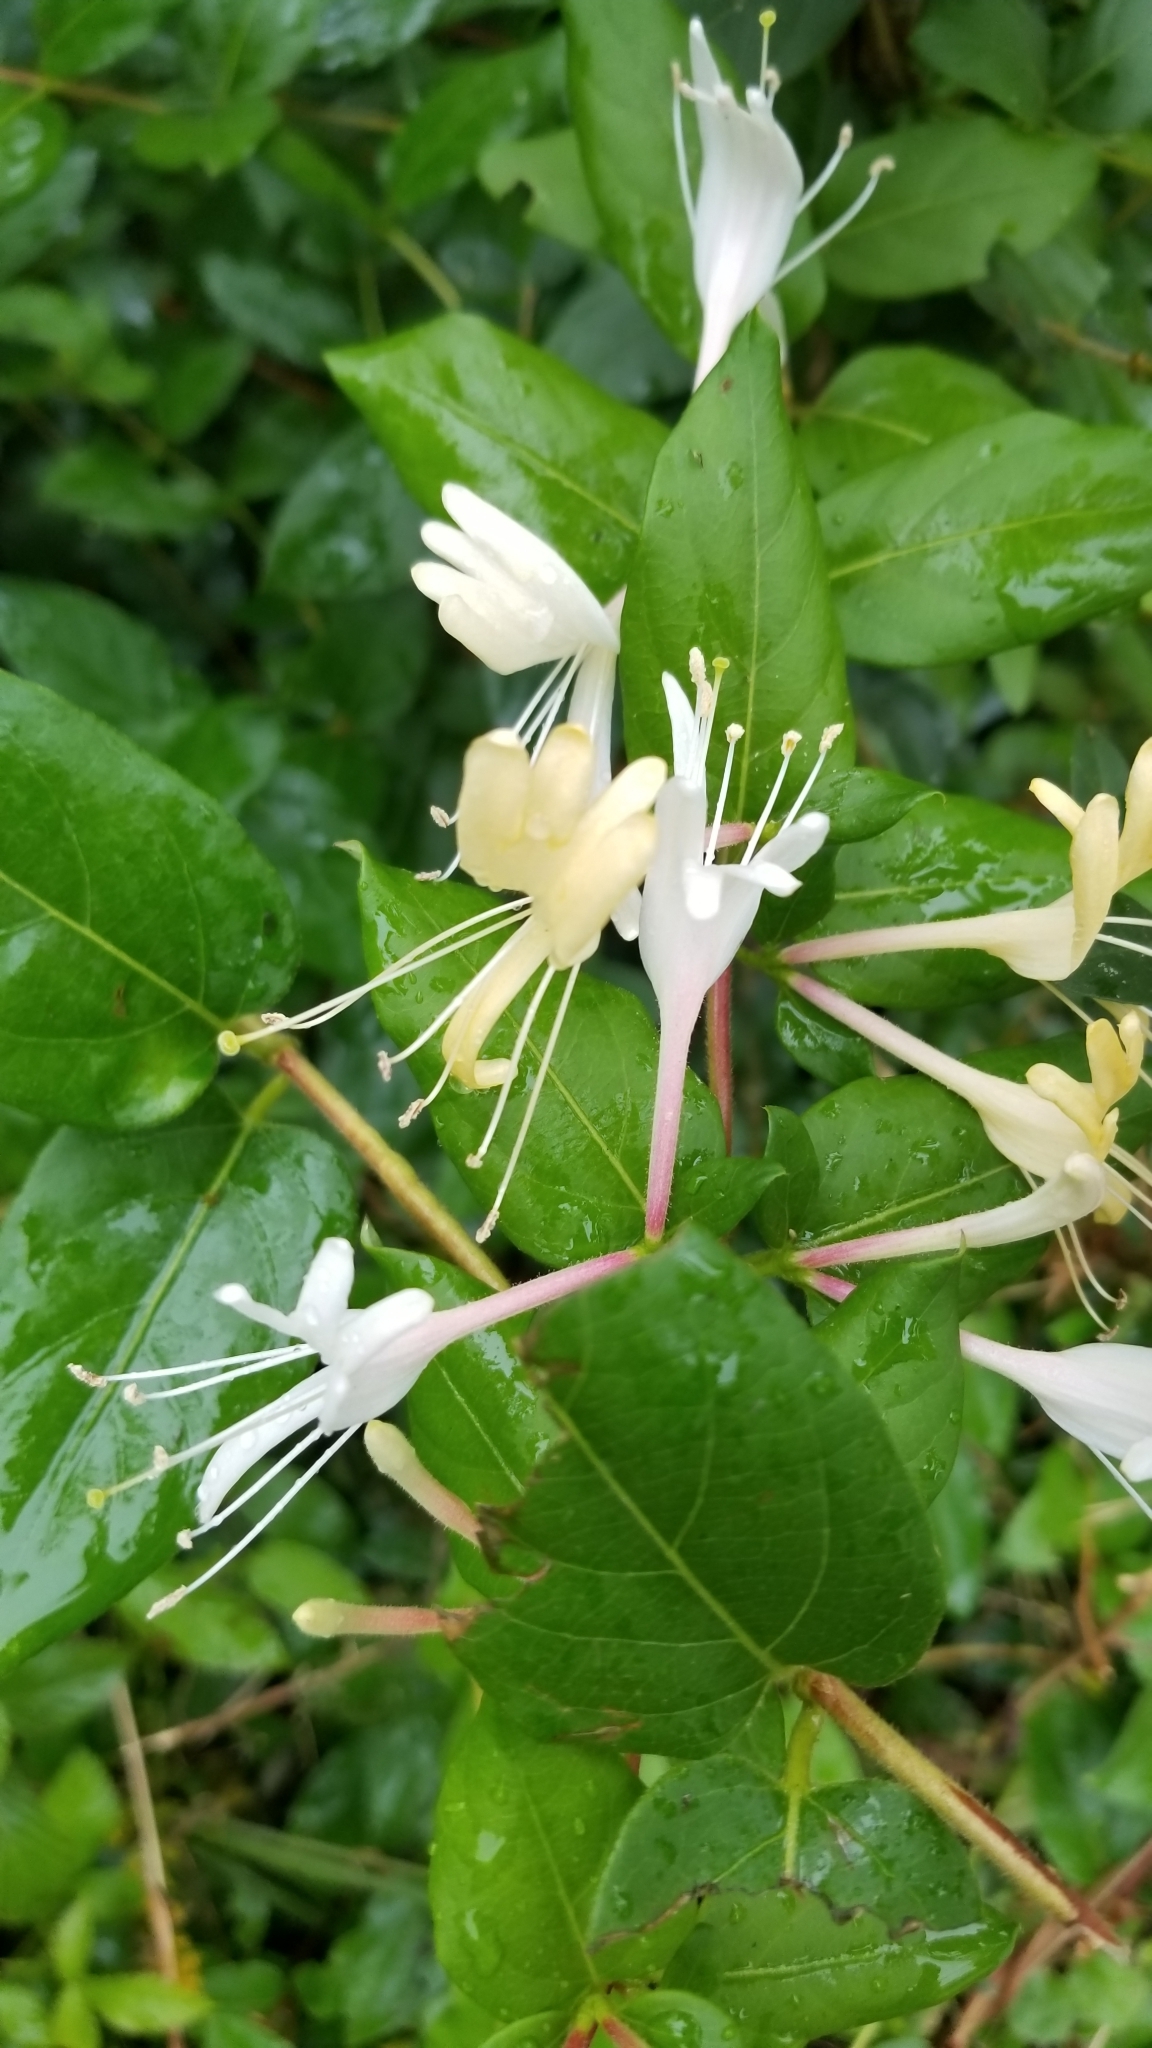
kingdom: Plantae
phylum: Tracheophyta
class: Magnoliopsida
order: Dipsacales
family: Caprifoliaceae
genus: Lonicera
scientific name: Lonicera japonica
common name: Japanese honeysuckle
